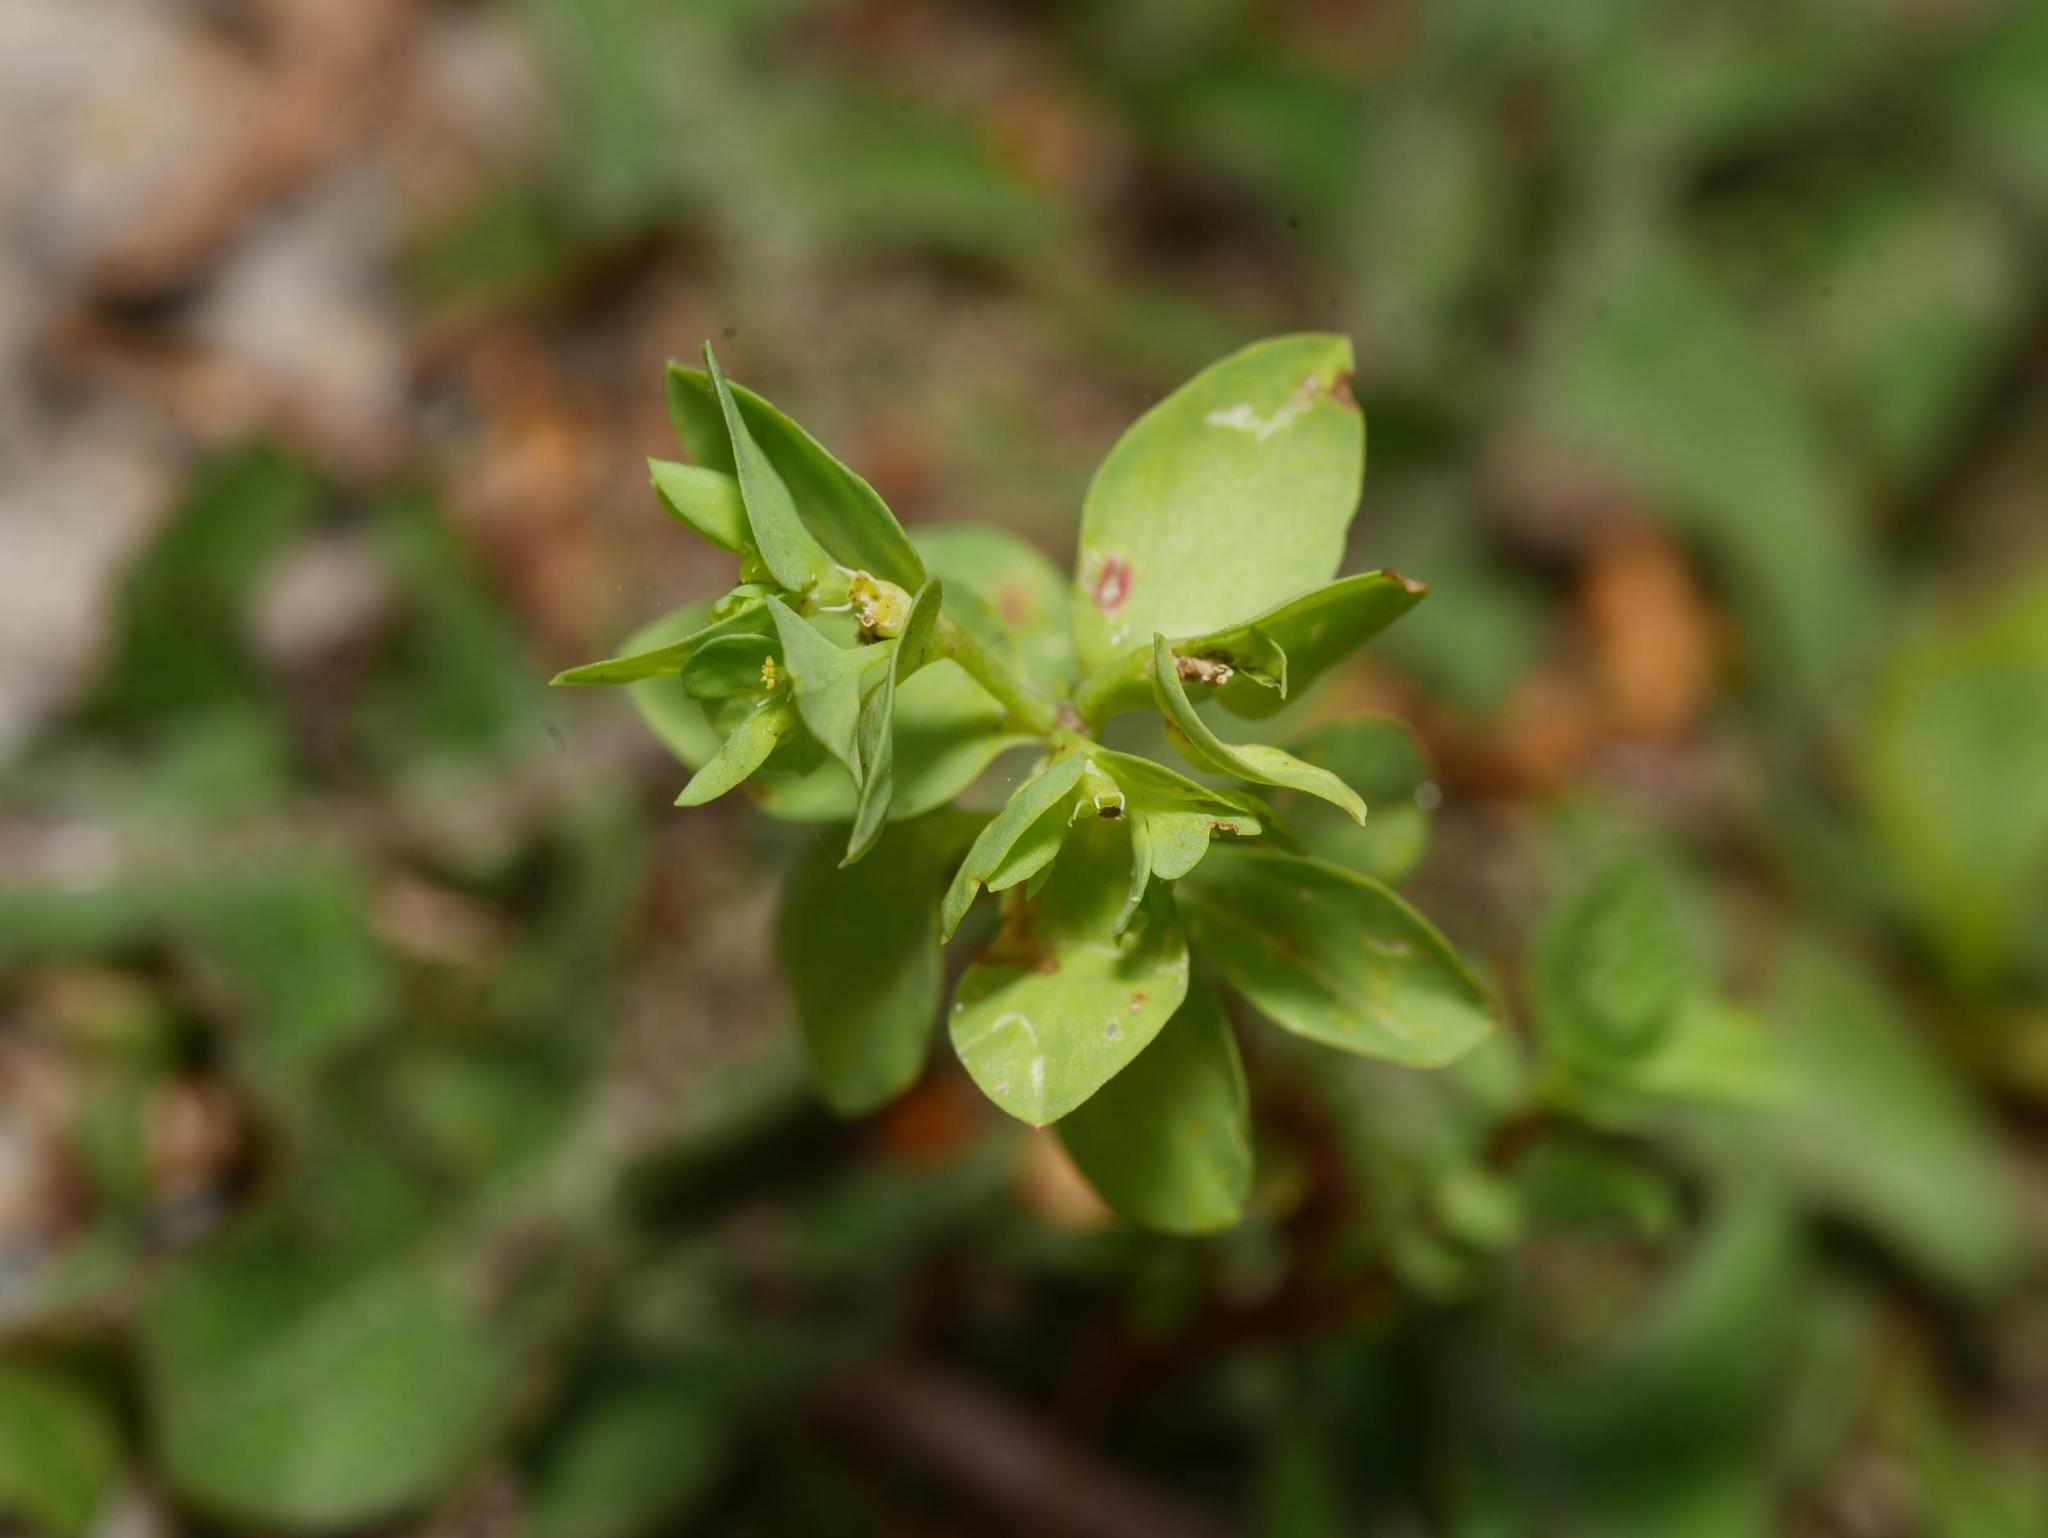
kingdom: Plantae
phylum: Tracheophyta
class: Magnoliopsida
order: Malpighiales
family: Euphorbiaceae
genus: Euphorbia
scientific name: Euphorbia peplus
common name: Petty spurge
